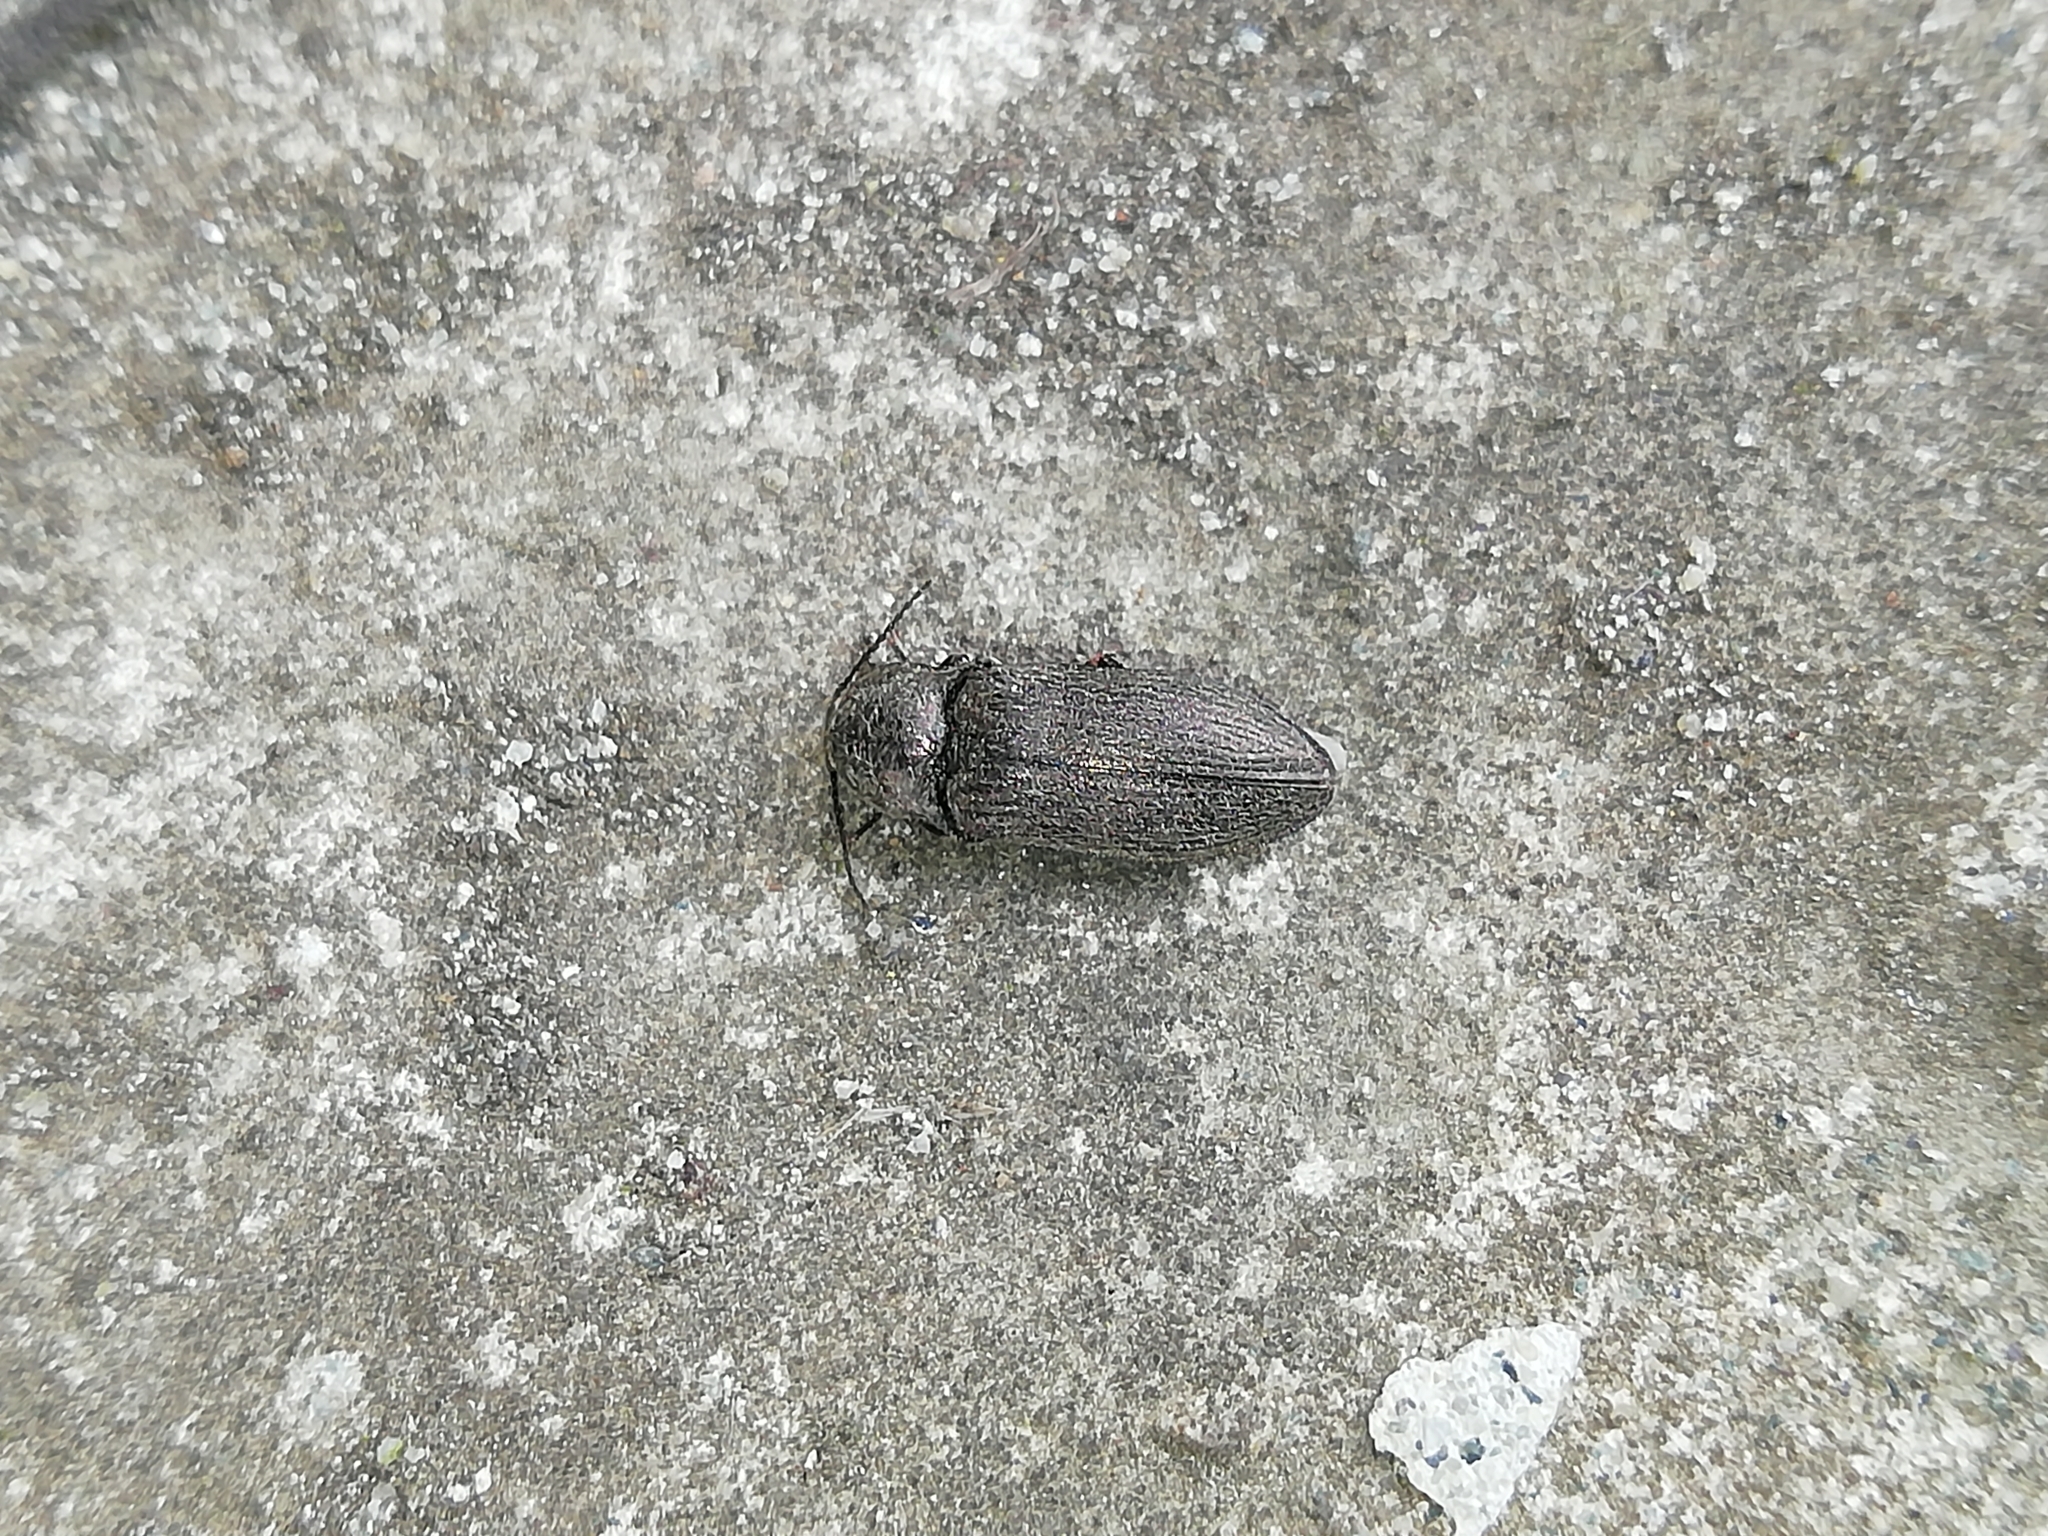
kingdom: Animalia
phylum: Arthropoda
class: Insecta
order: Coleoptera
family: Elateridae
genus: Selatosomus
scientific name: Selatosomus latus
